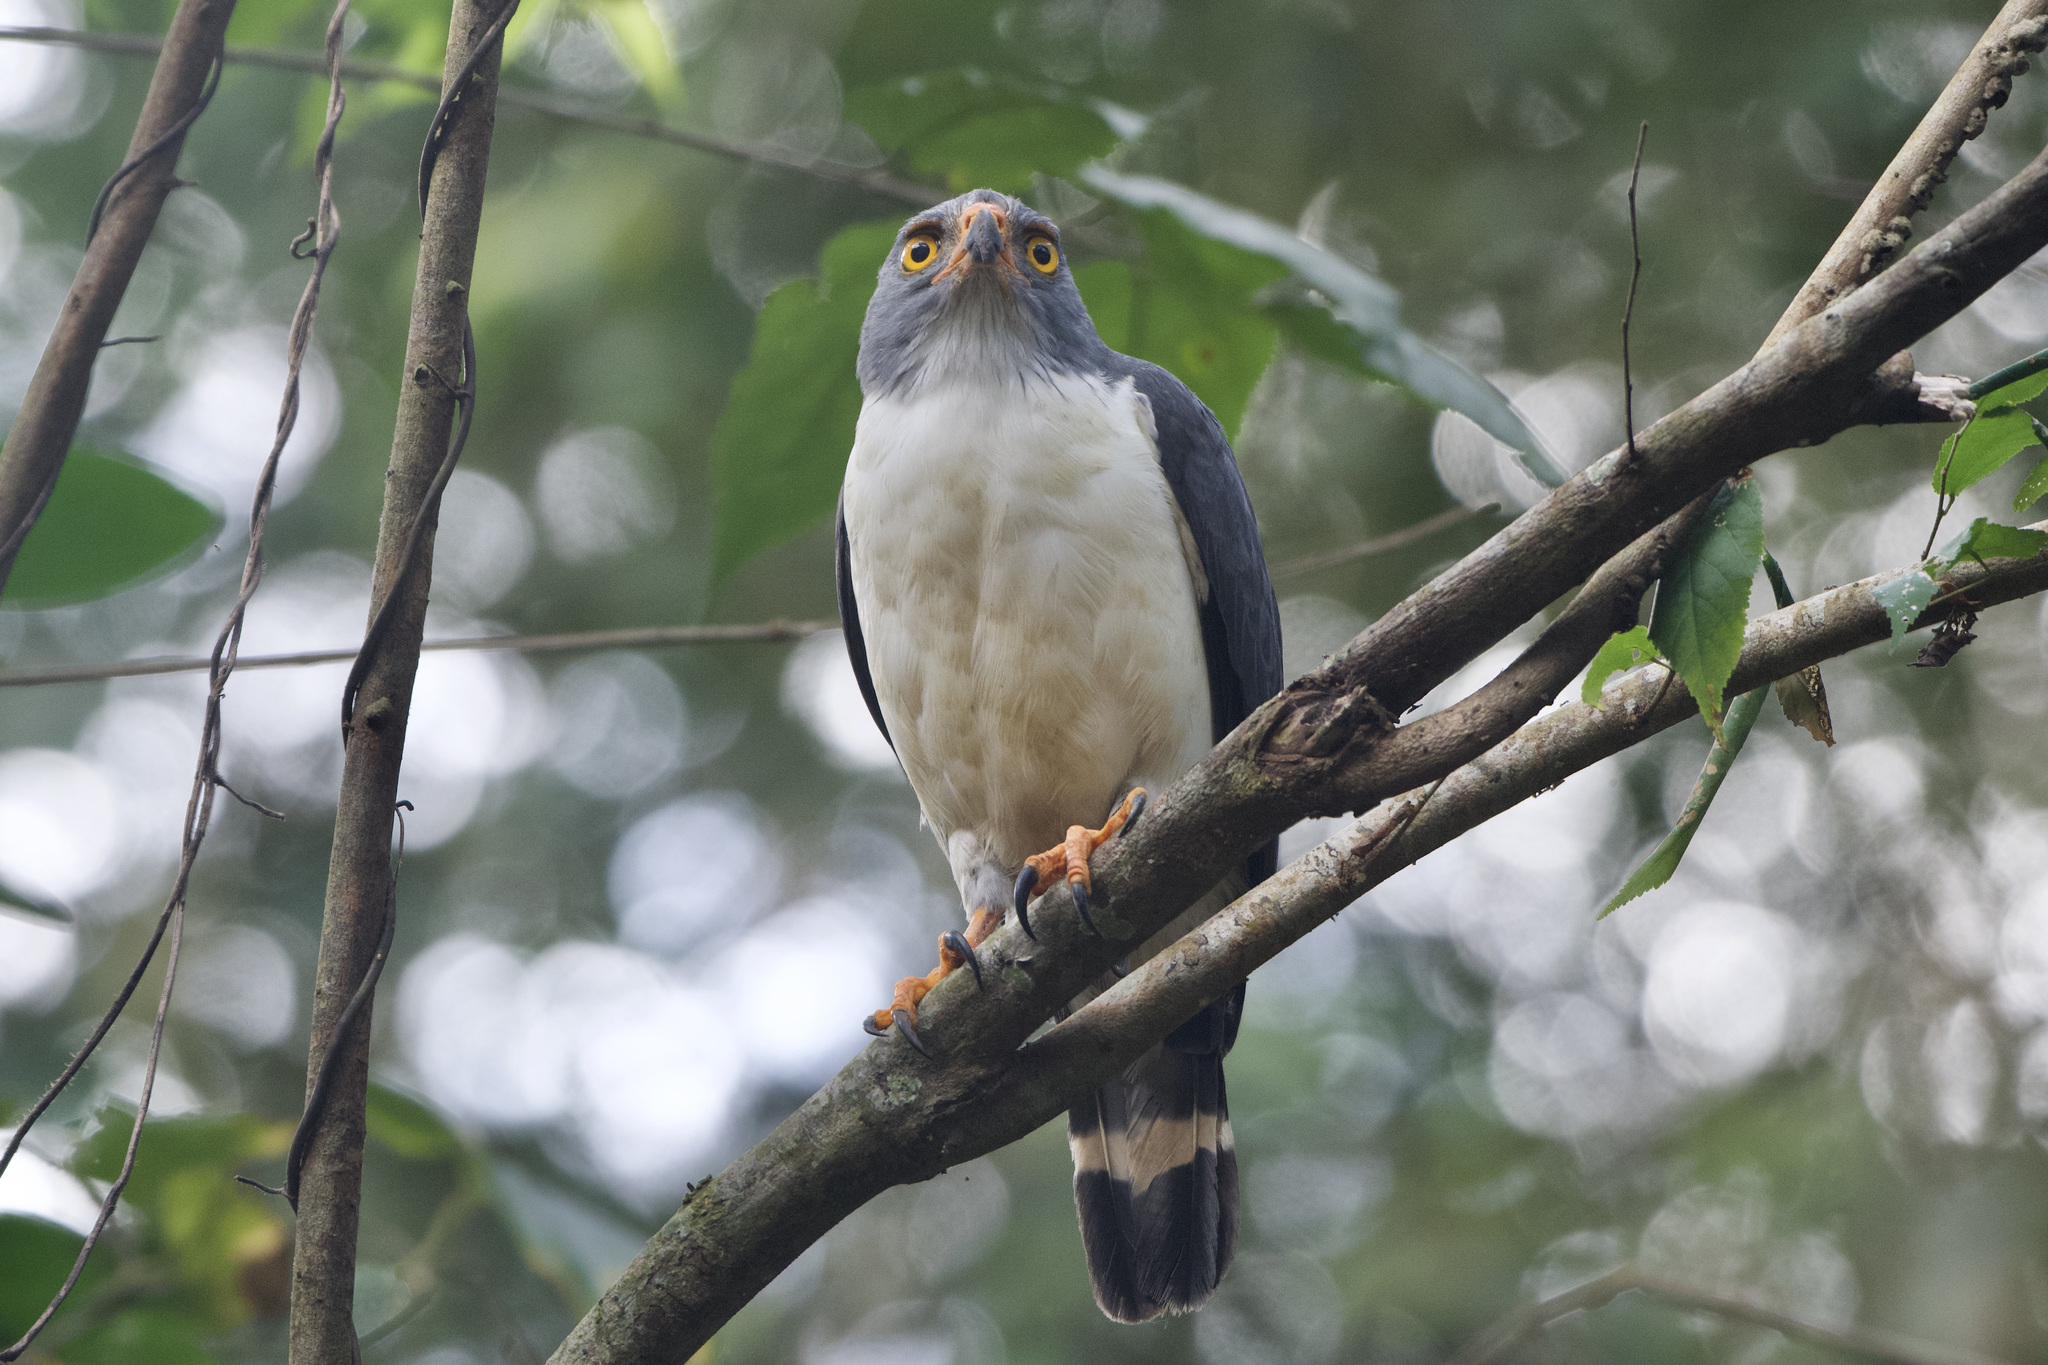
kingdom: Animalia
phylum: Chordata
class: Aves
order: Accipitriformes
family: Accipitridae
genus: Leucopternis
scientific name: Leucopternis semiplumbeus
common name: Semiplumbeous hawk
